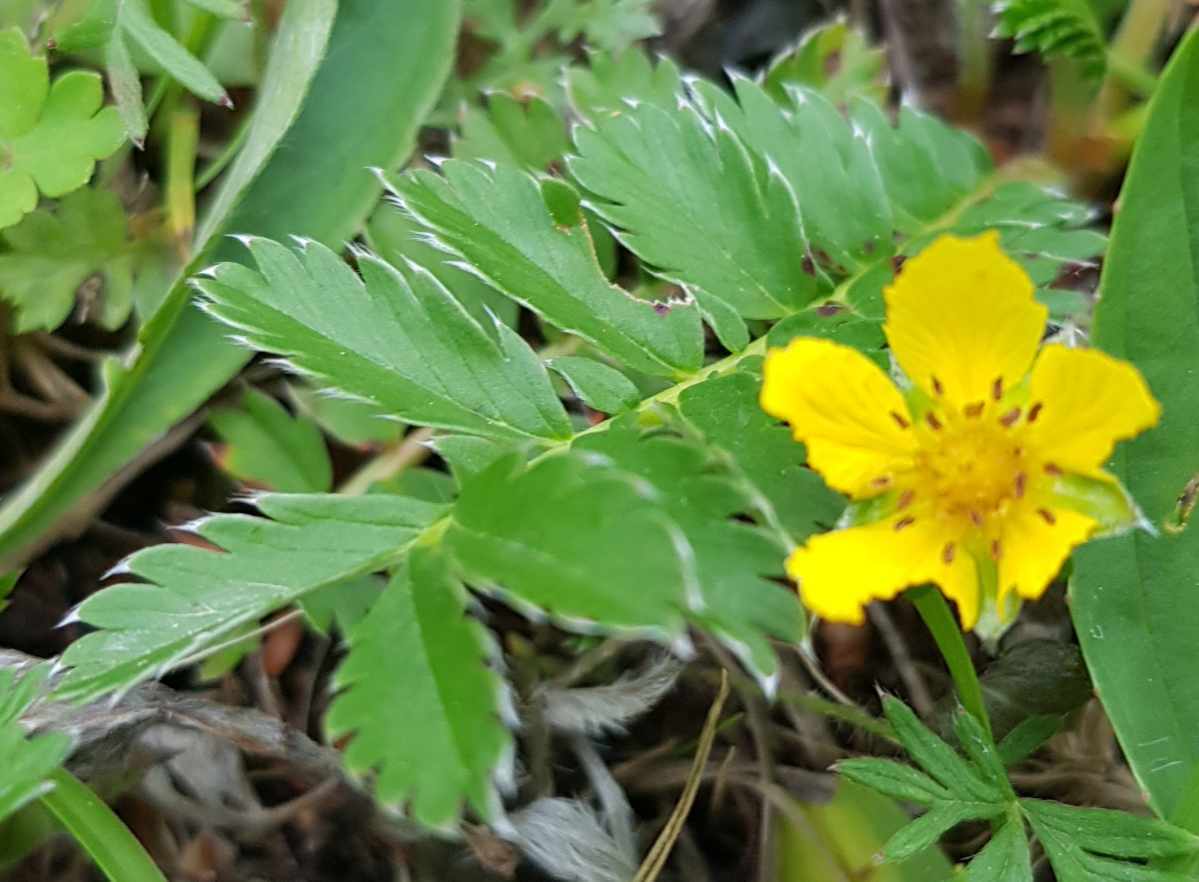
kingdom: Plantae
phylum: Tracheophyta
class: Magnoliopsida
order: Rosales
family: Rosaceae
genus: Argentina
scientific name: Argentina anserina
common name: Common silverweed
